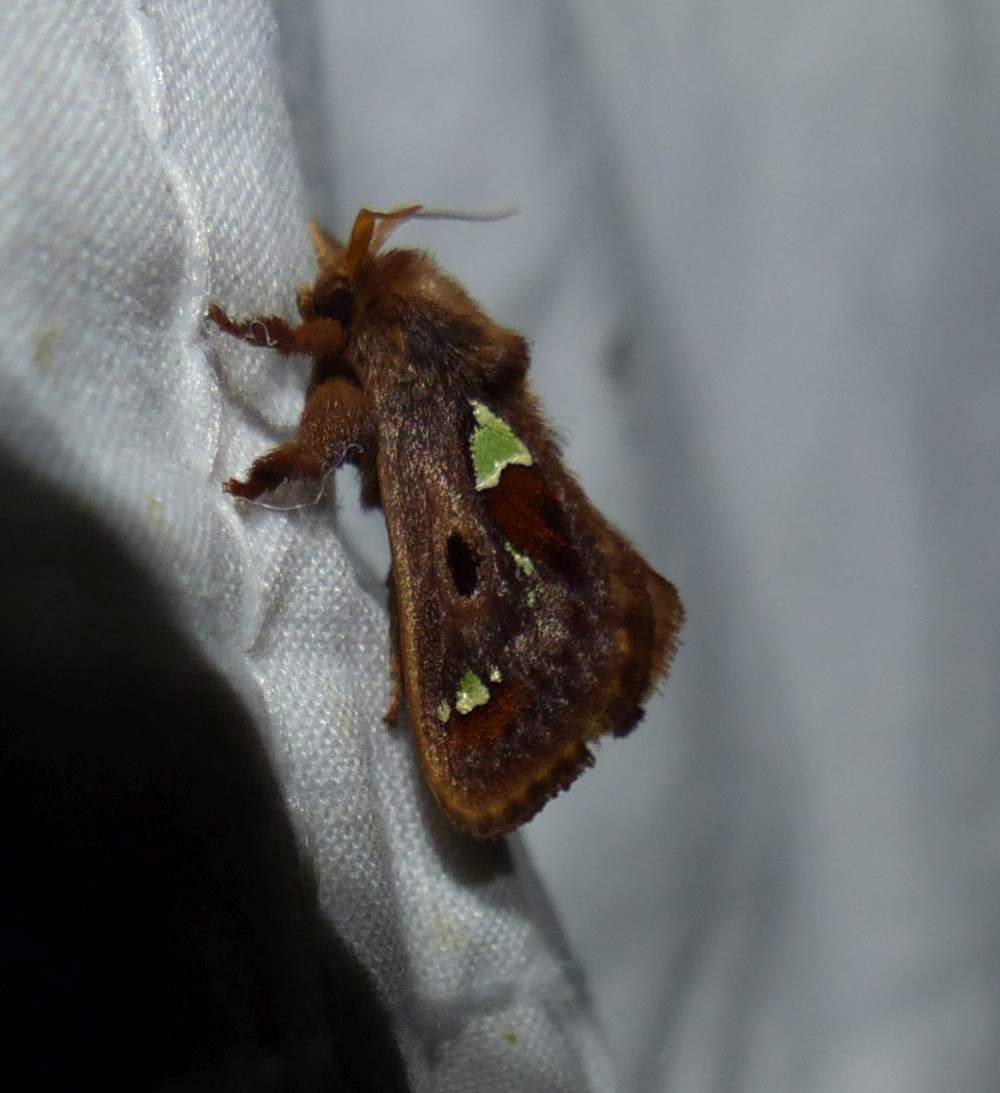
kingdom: Animalia
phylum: Arthropoda
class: Insecta
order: Lepidoptera
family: Limacodidae
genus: Euclea
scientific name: Euclea delphinii
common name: Spiny oak-slug moth
